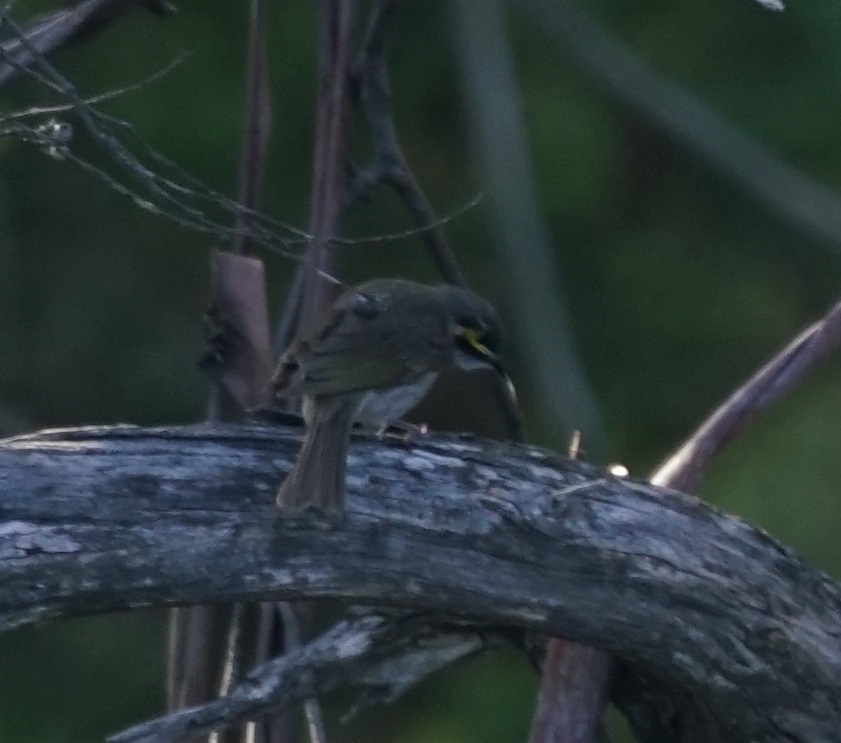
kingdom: Animalia
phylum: Chordata
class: Aves
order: Passeriformes
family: Meliphagidae
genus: Caligavis
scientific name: Caligavis chrysops
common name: Yellow-faced honeyeater
